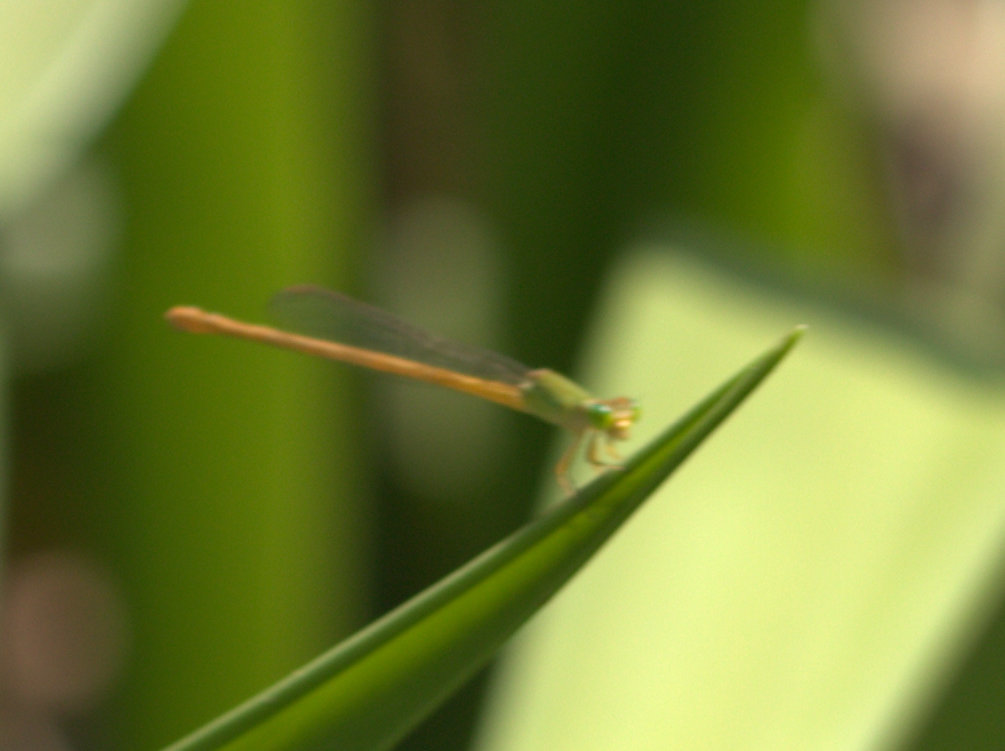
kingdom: Animalia
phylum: Arthropoda
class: Insecta
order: Odonata
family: Coenagrionidae
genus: Ceriagrion
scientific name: Ceriagrion coromandelianum
